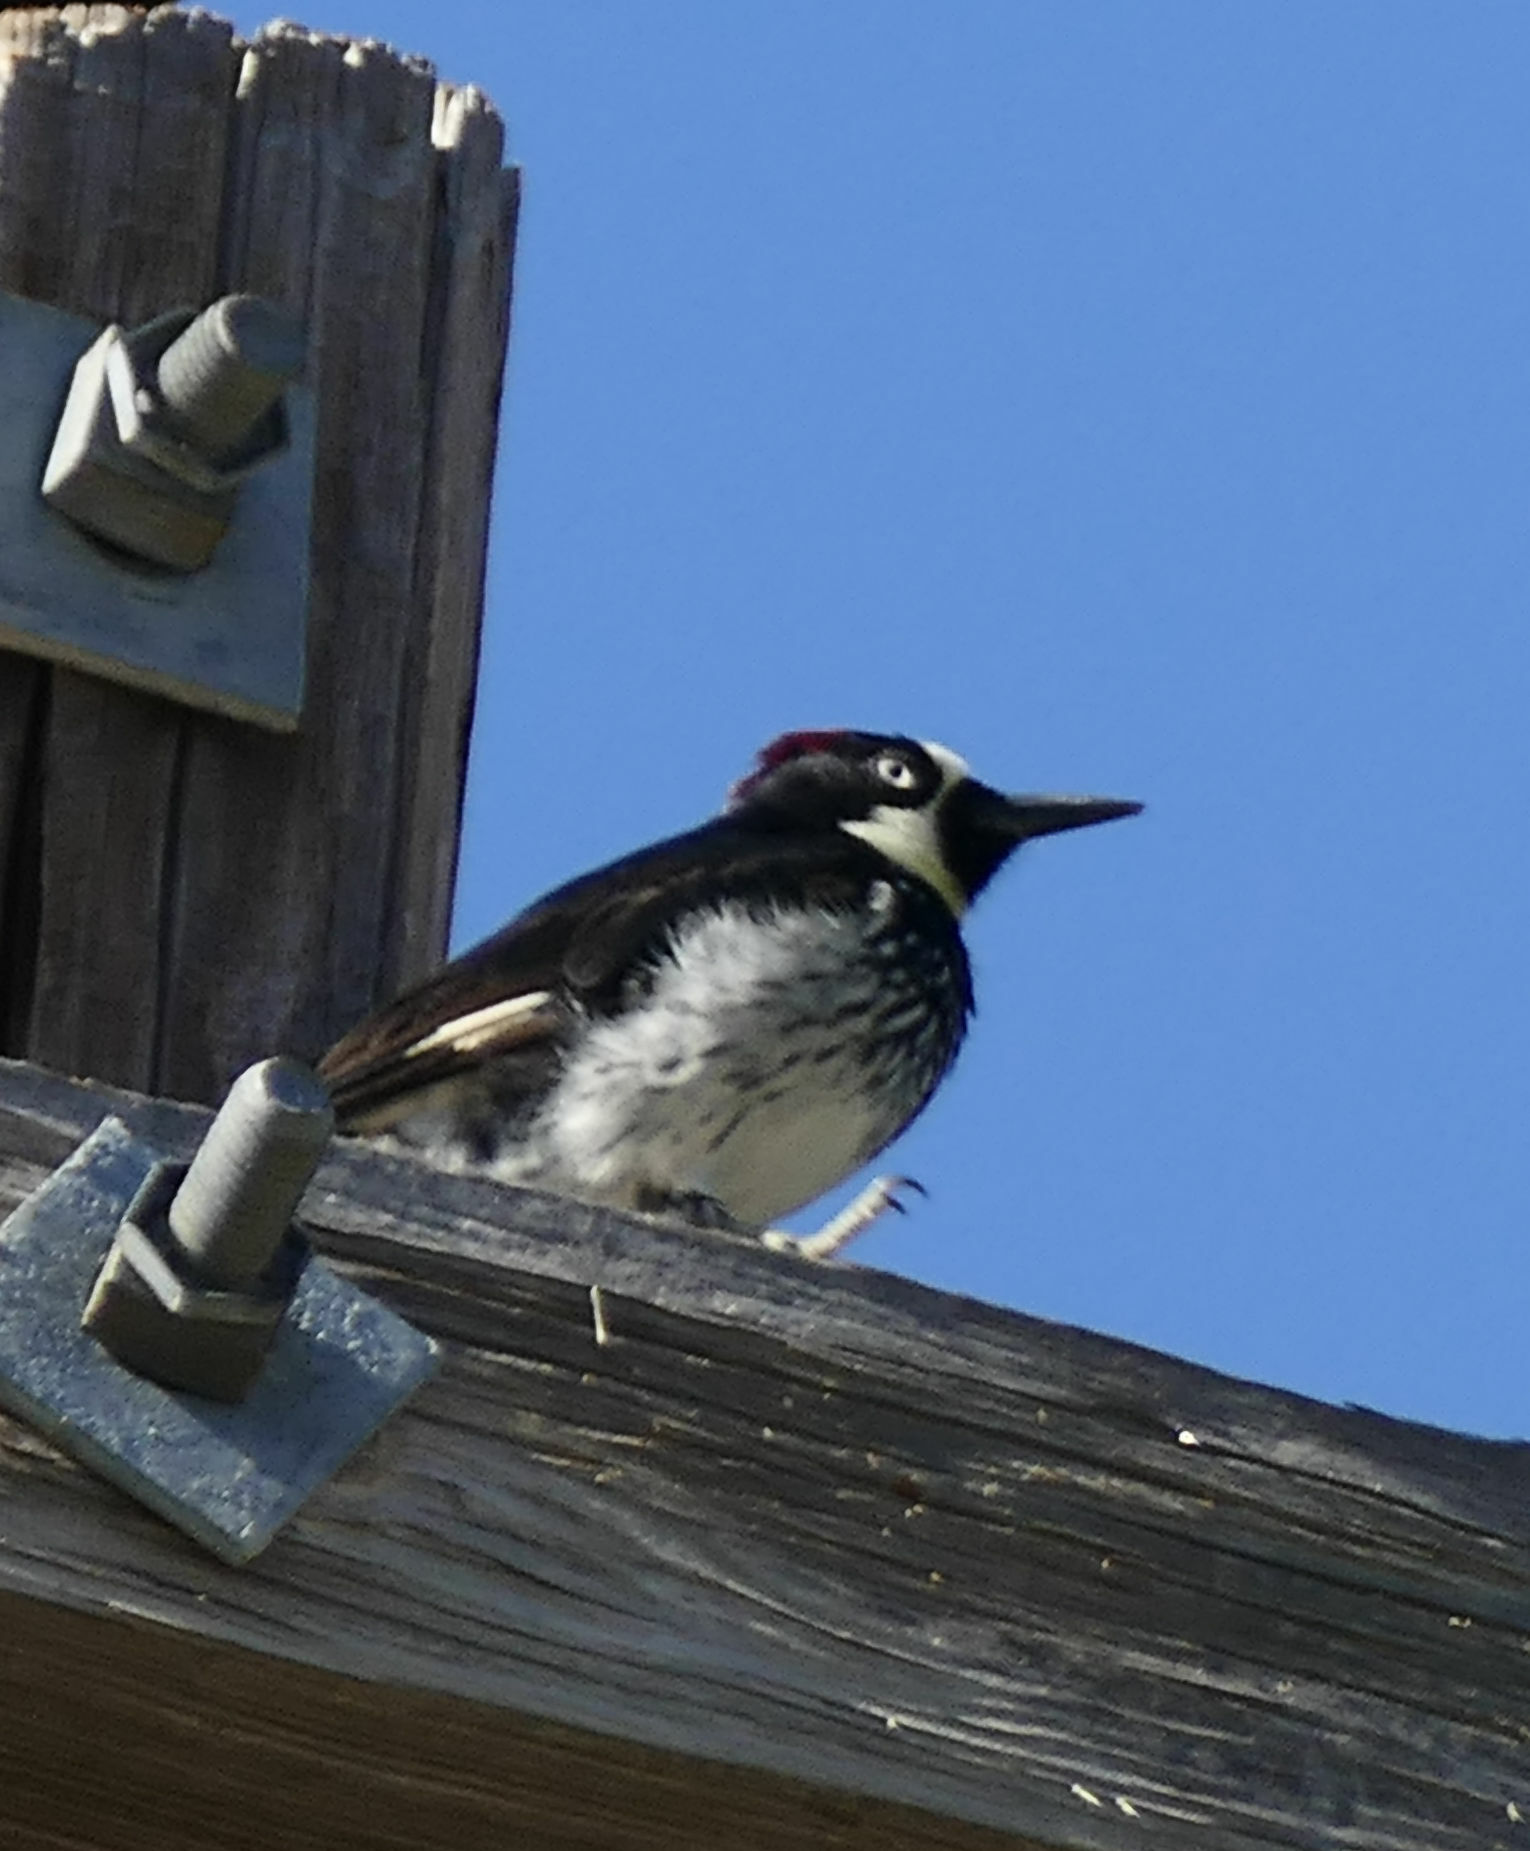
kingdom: Animalia
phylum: Chordata
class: Aves
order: Piciformes
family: Picidae
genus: Melanerpes
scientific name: Melanerpes formicivorus
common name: Acorn woodpecker
